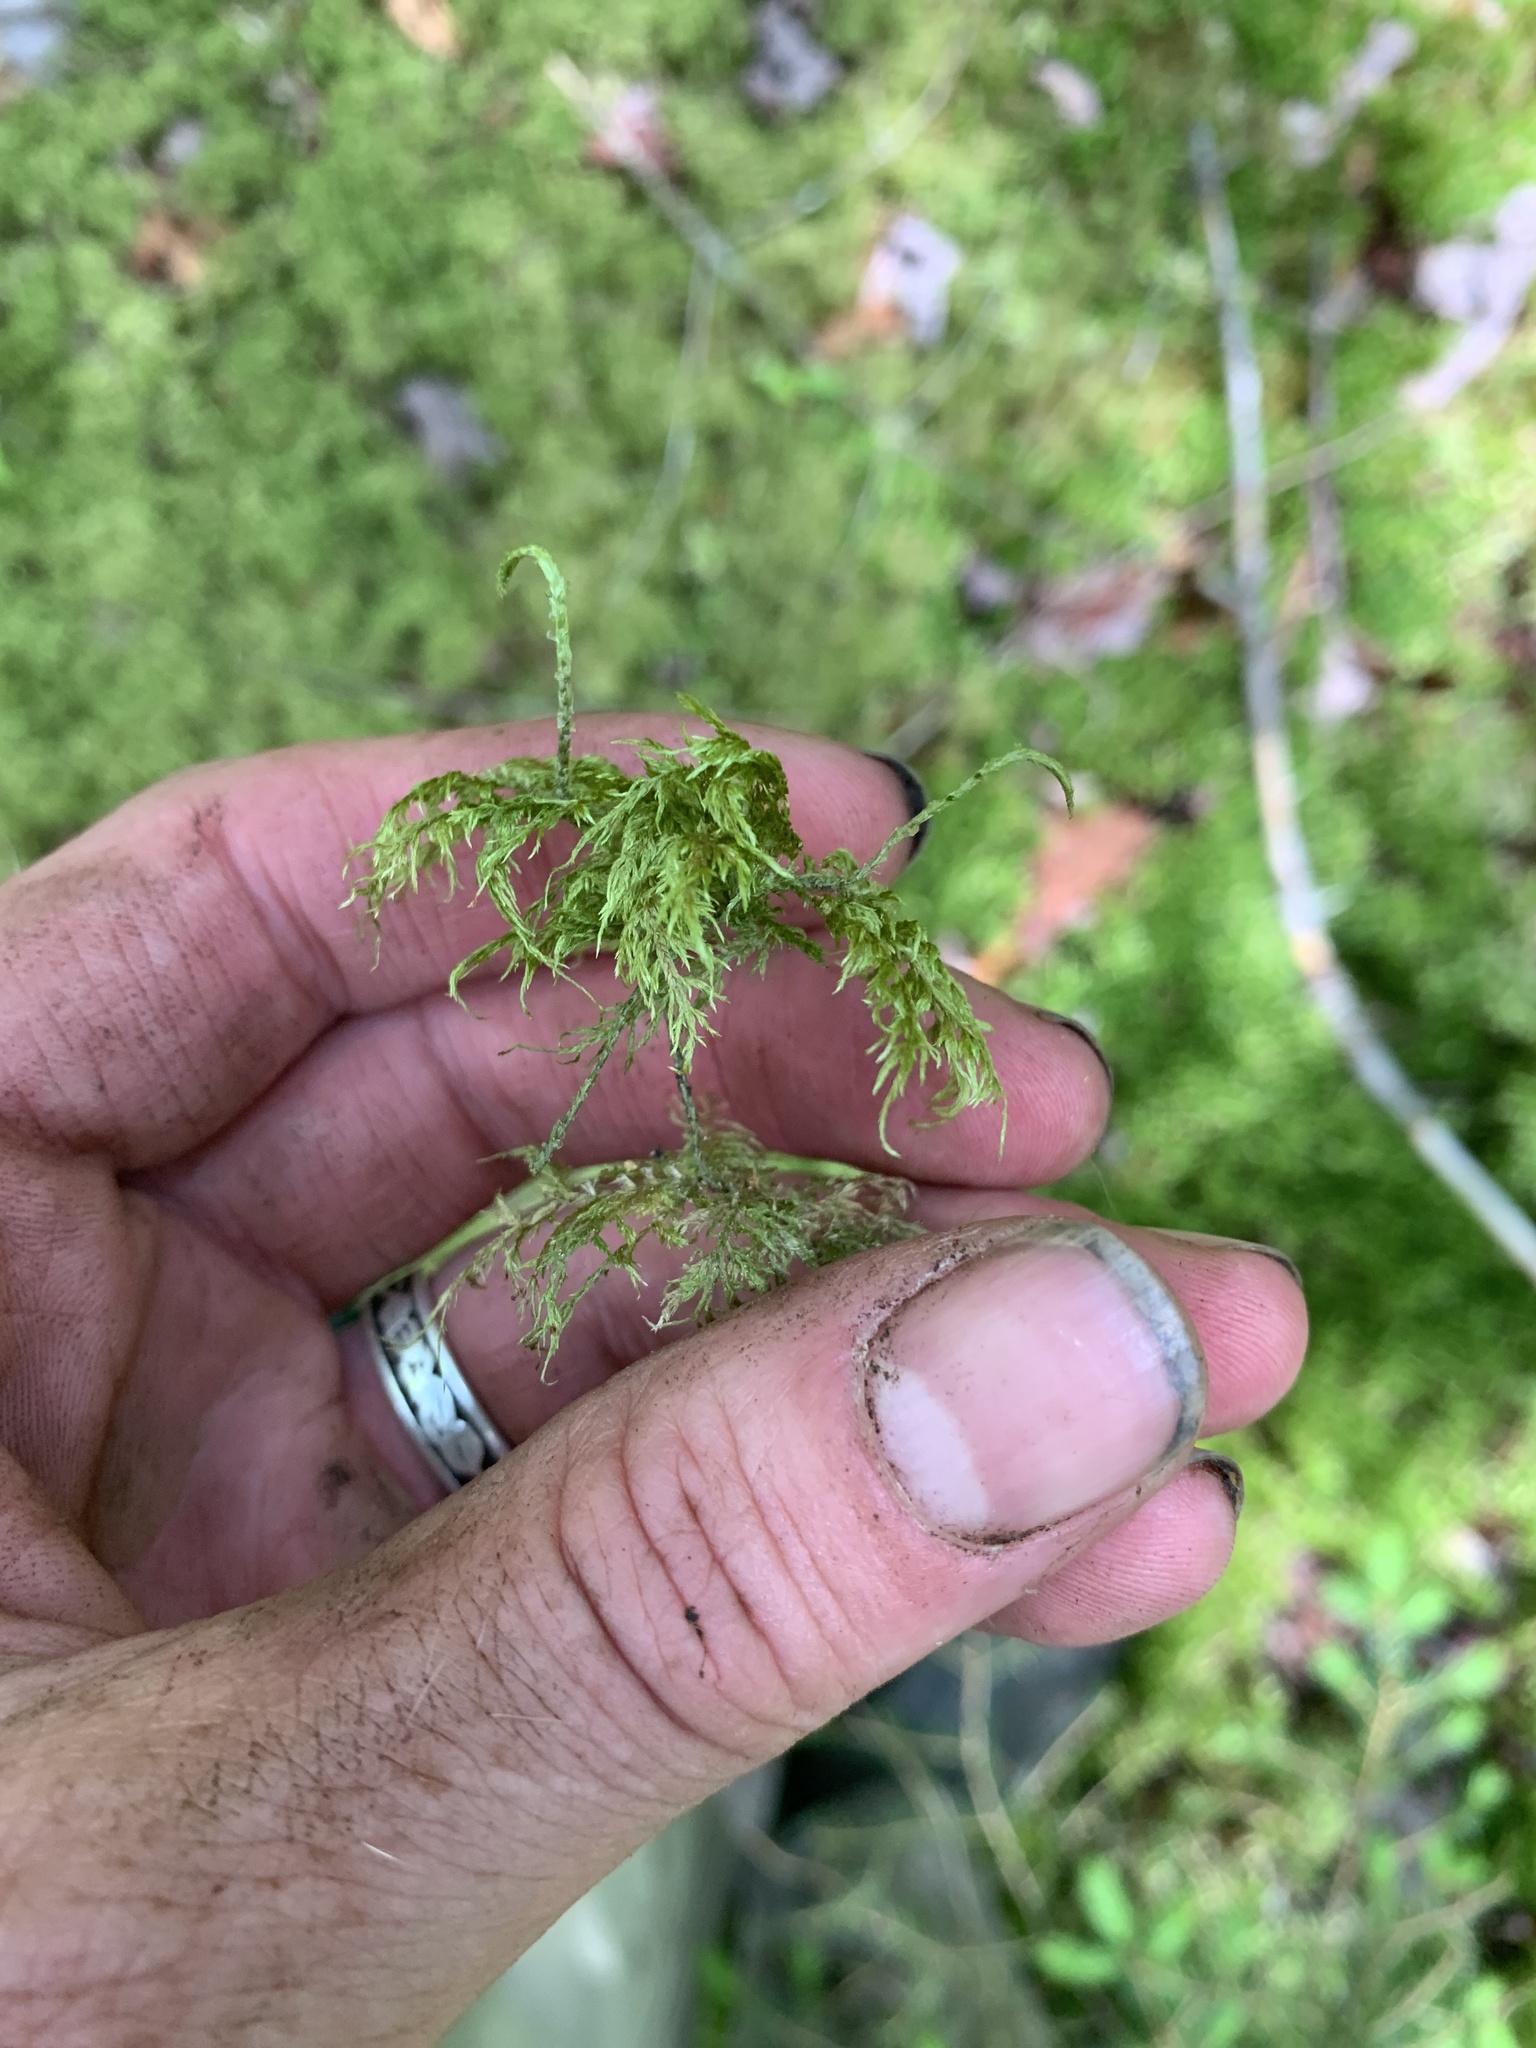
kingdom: Plantae
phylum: Bryophyta
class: Bryopsida
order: Hypnales
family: Hylocomiaceae
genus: Hylocomium
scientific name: Hylocomium splendens
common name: Stairstep moss
